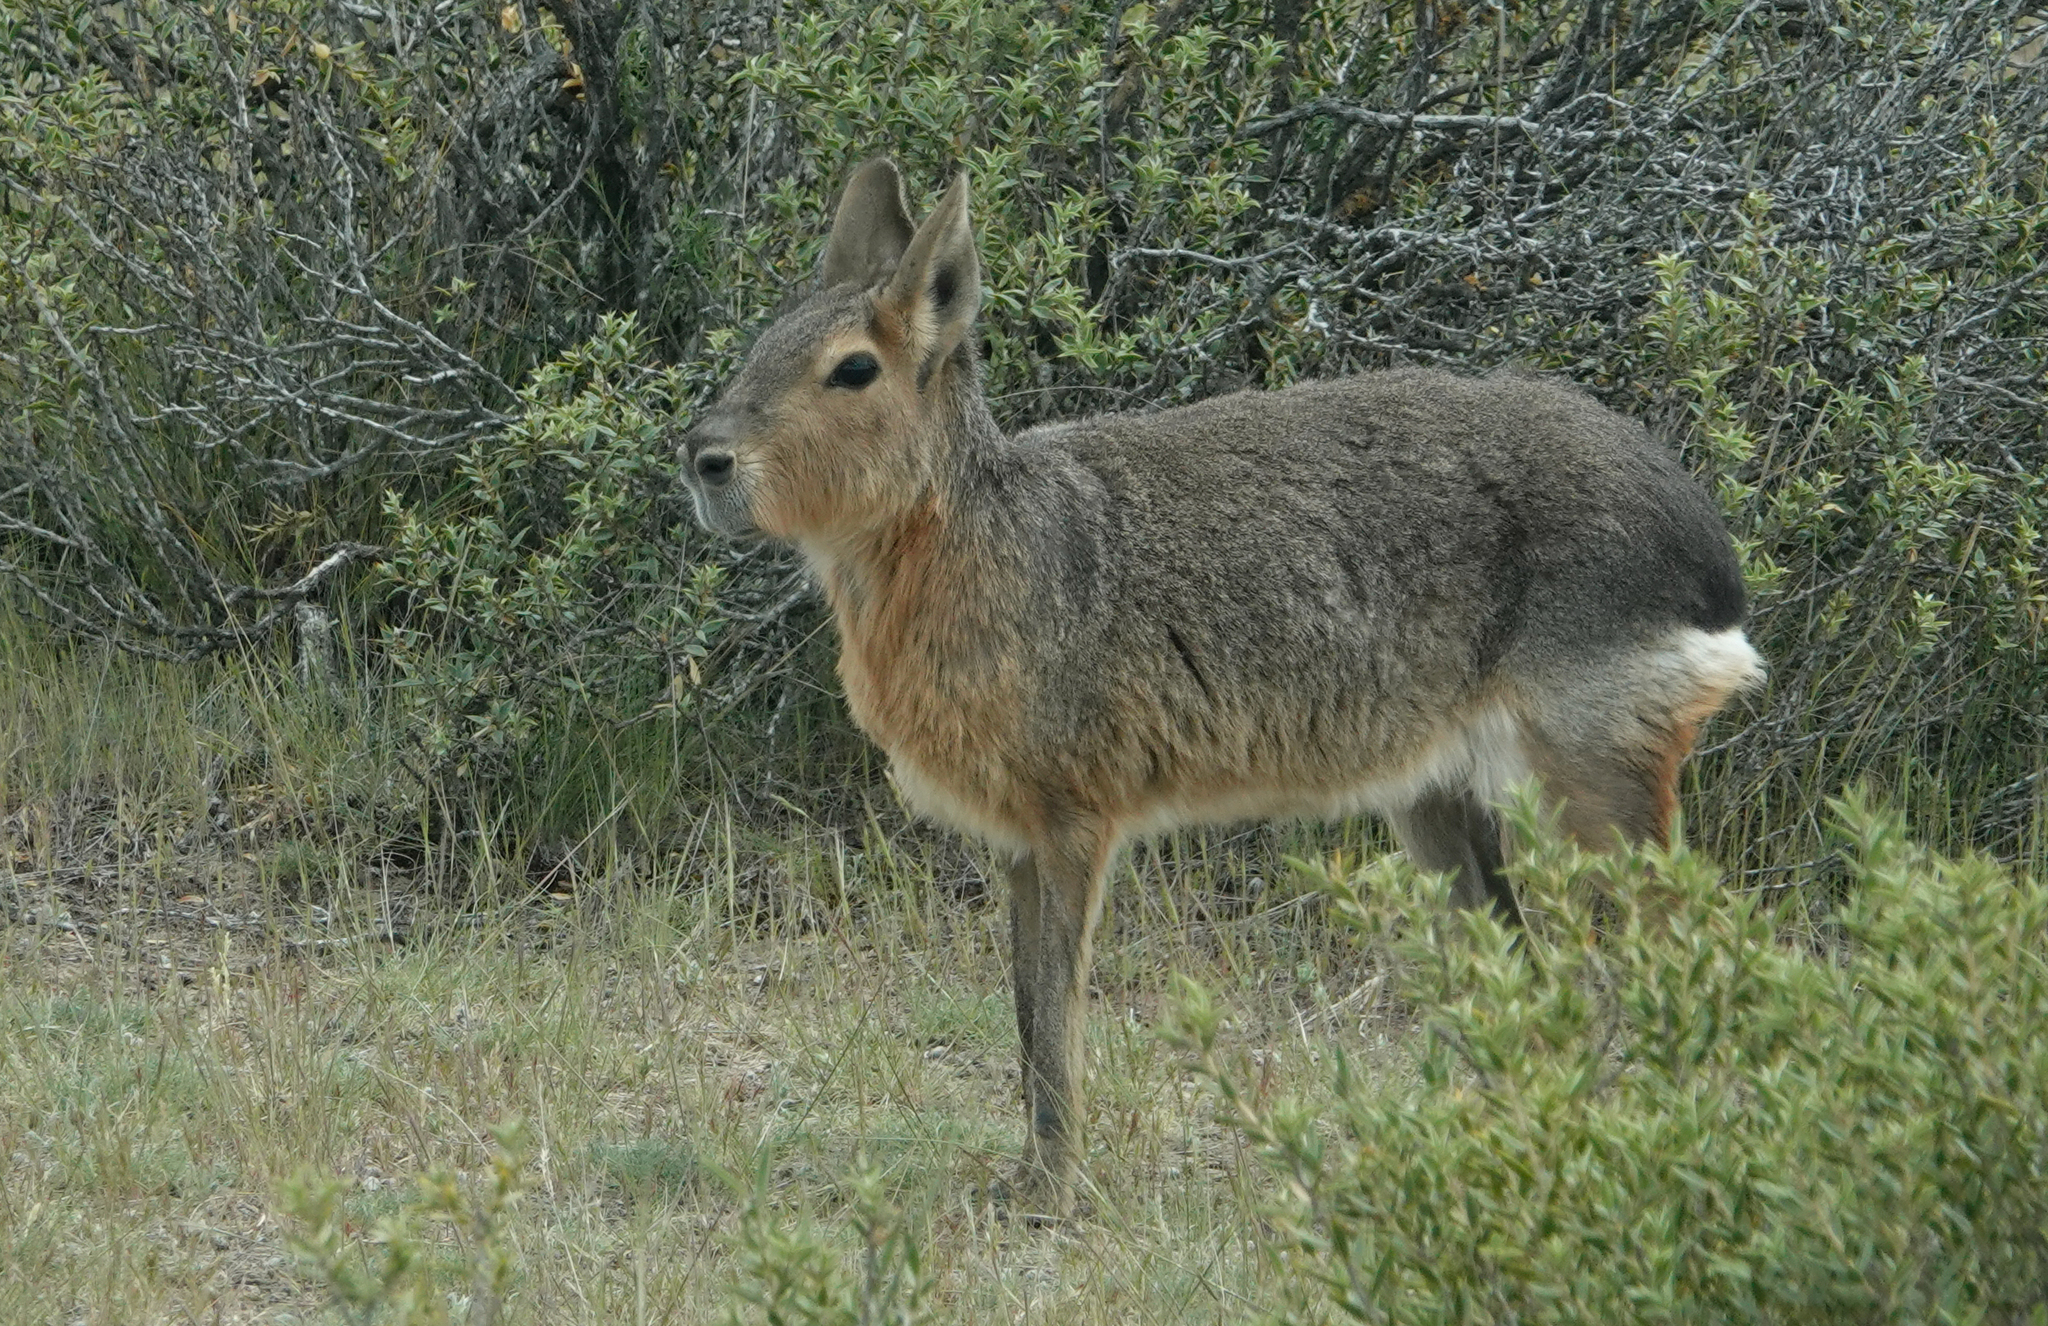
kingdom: Animalia
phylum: Chordata
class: Mammalia
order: Rodentia
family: Caviidae
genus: Dolichotis
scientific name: Dolichotis patagonum
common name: Patagonian mara
